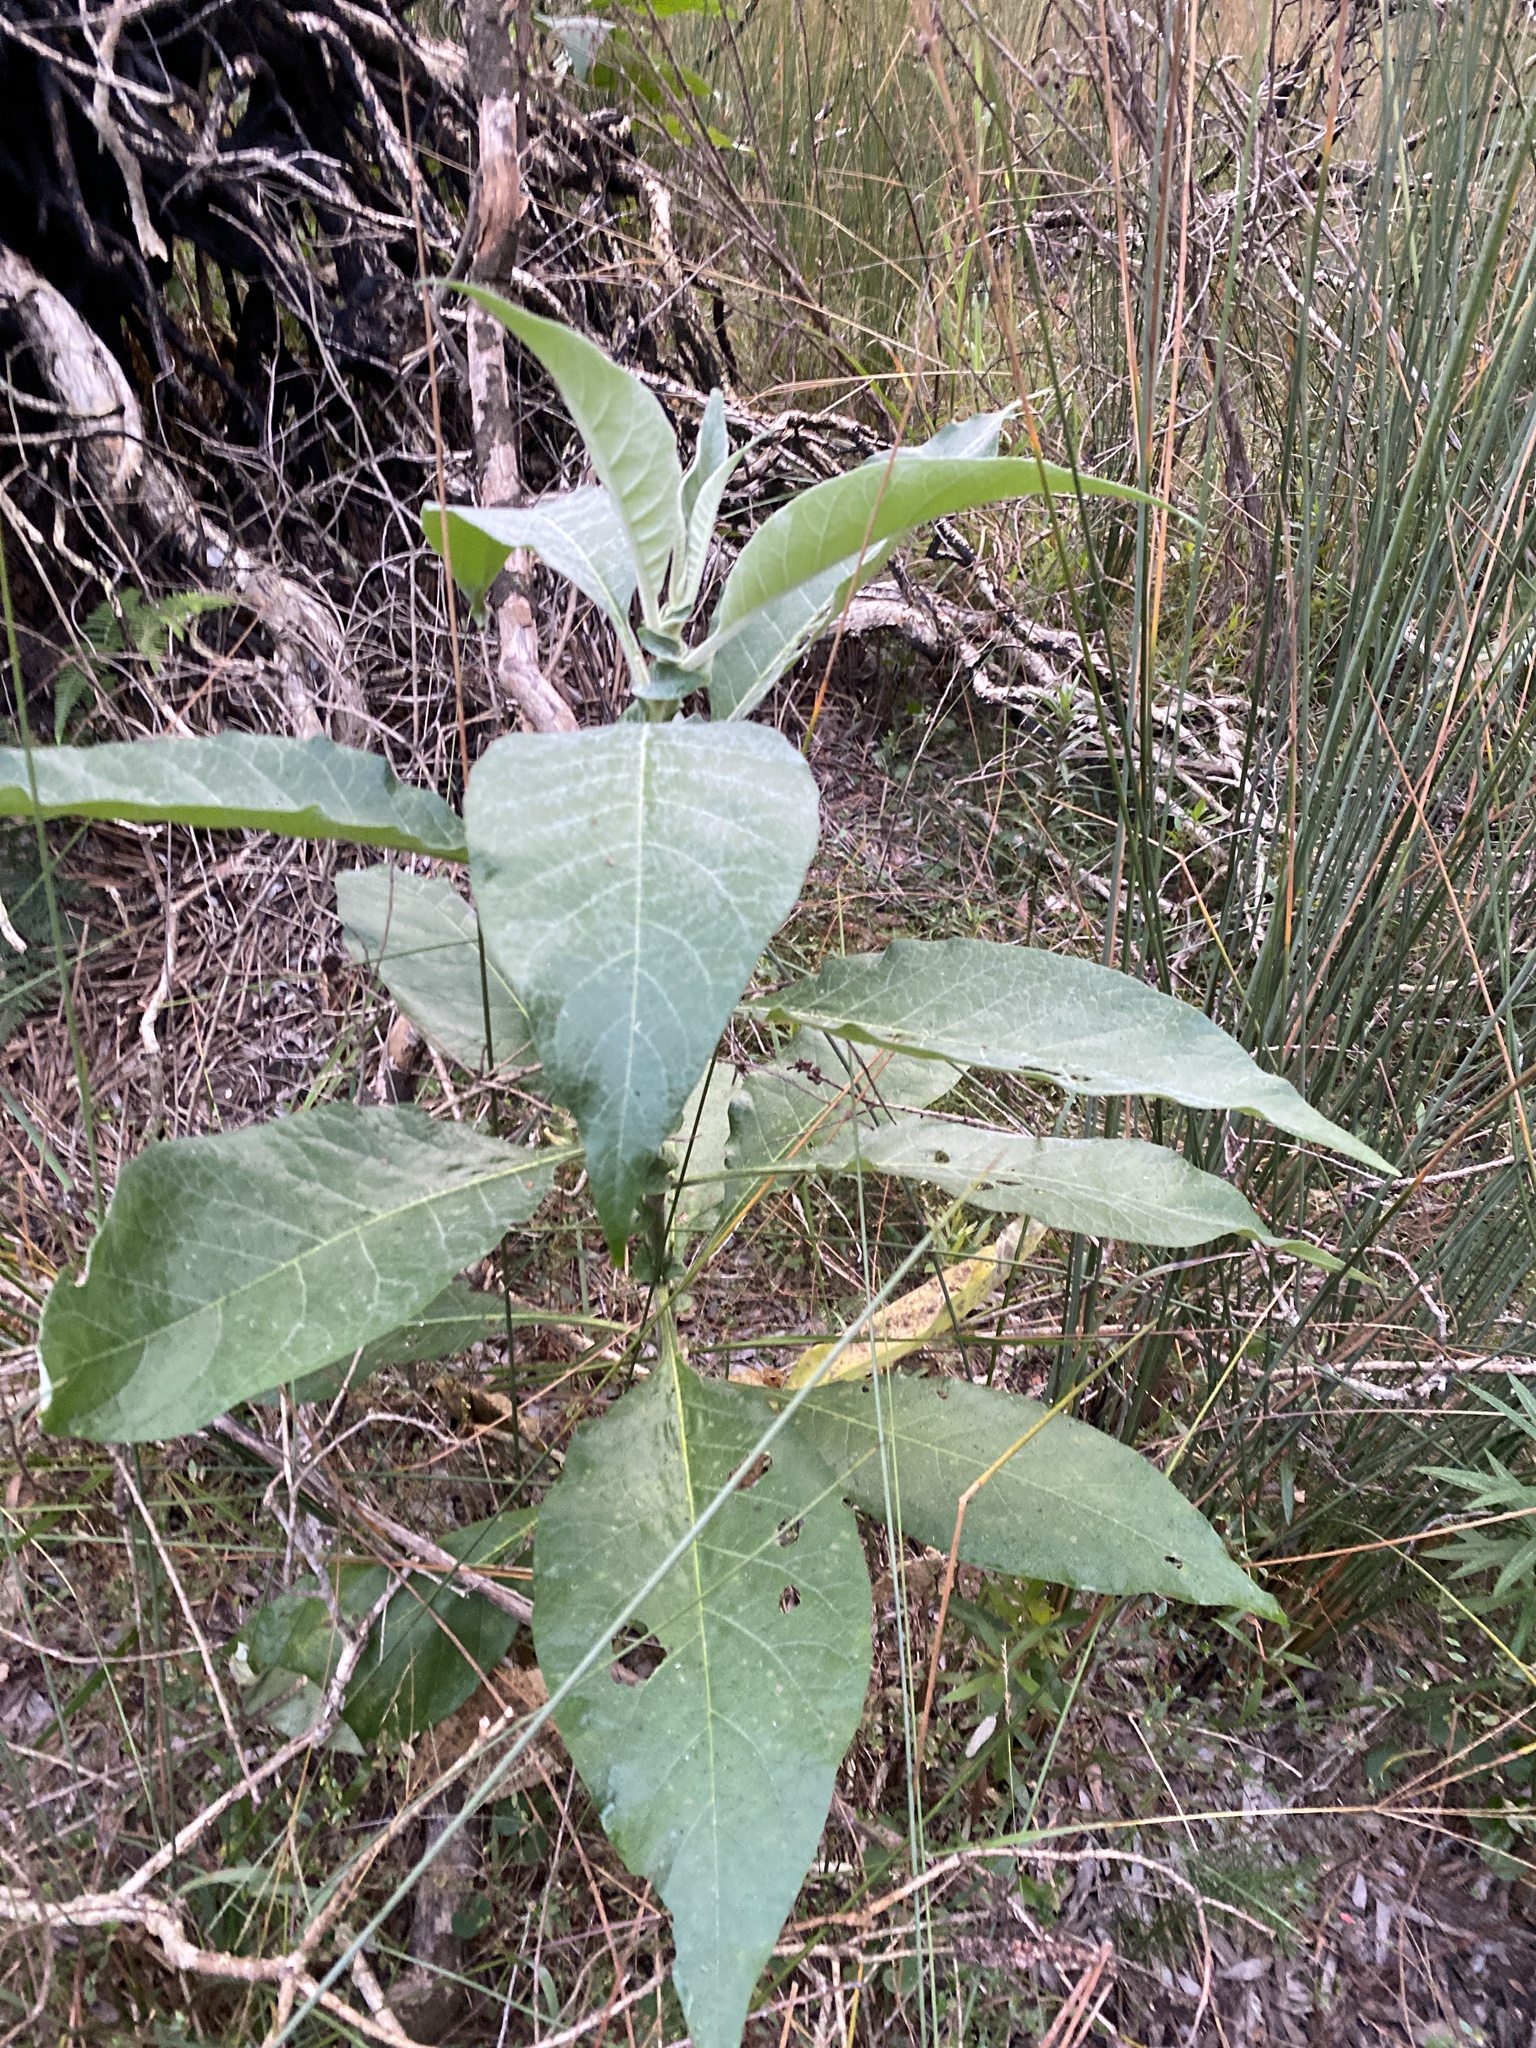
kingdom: Plantae
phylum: Tracheophyta
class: Magnoliopsida
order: Solanales
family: Solanaceae
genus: Solanum
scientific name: Solanum mauritianum
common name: Earleaf nightshade
